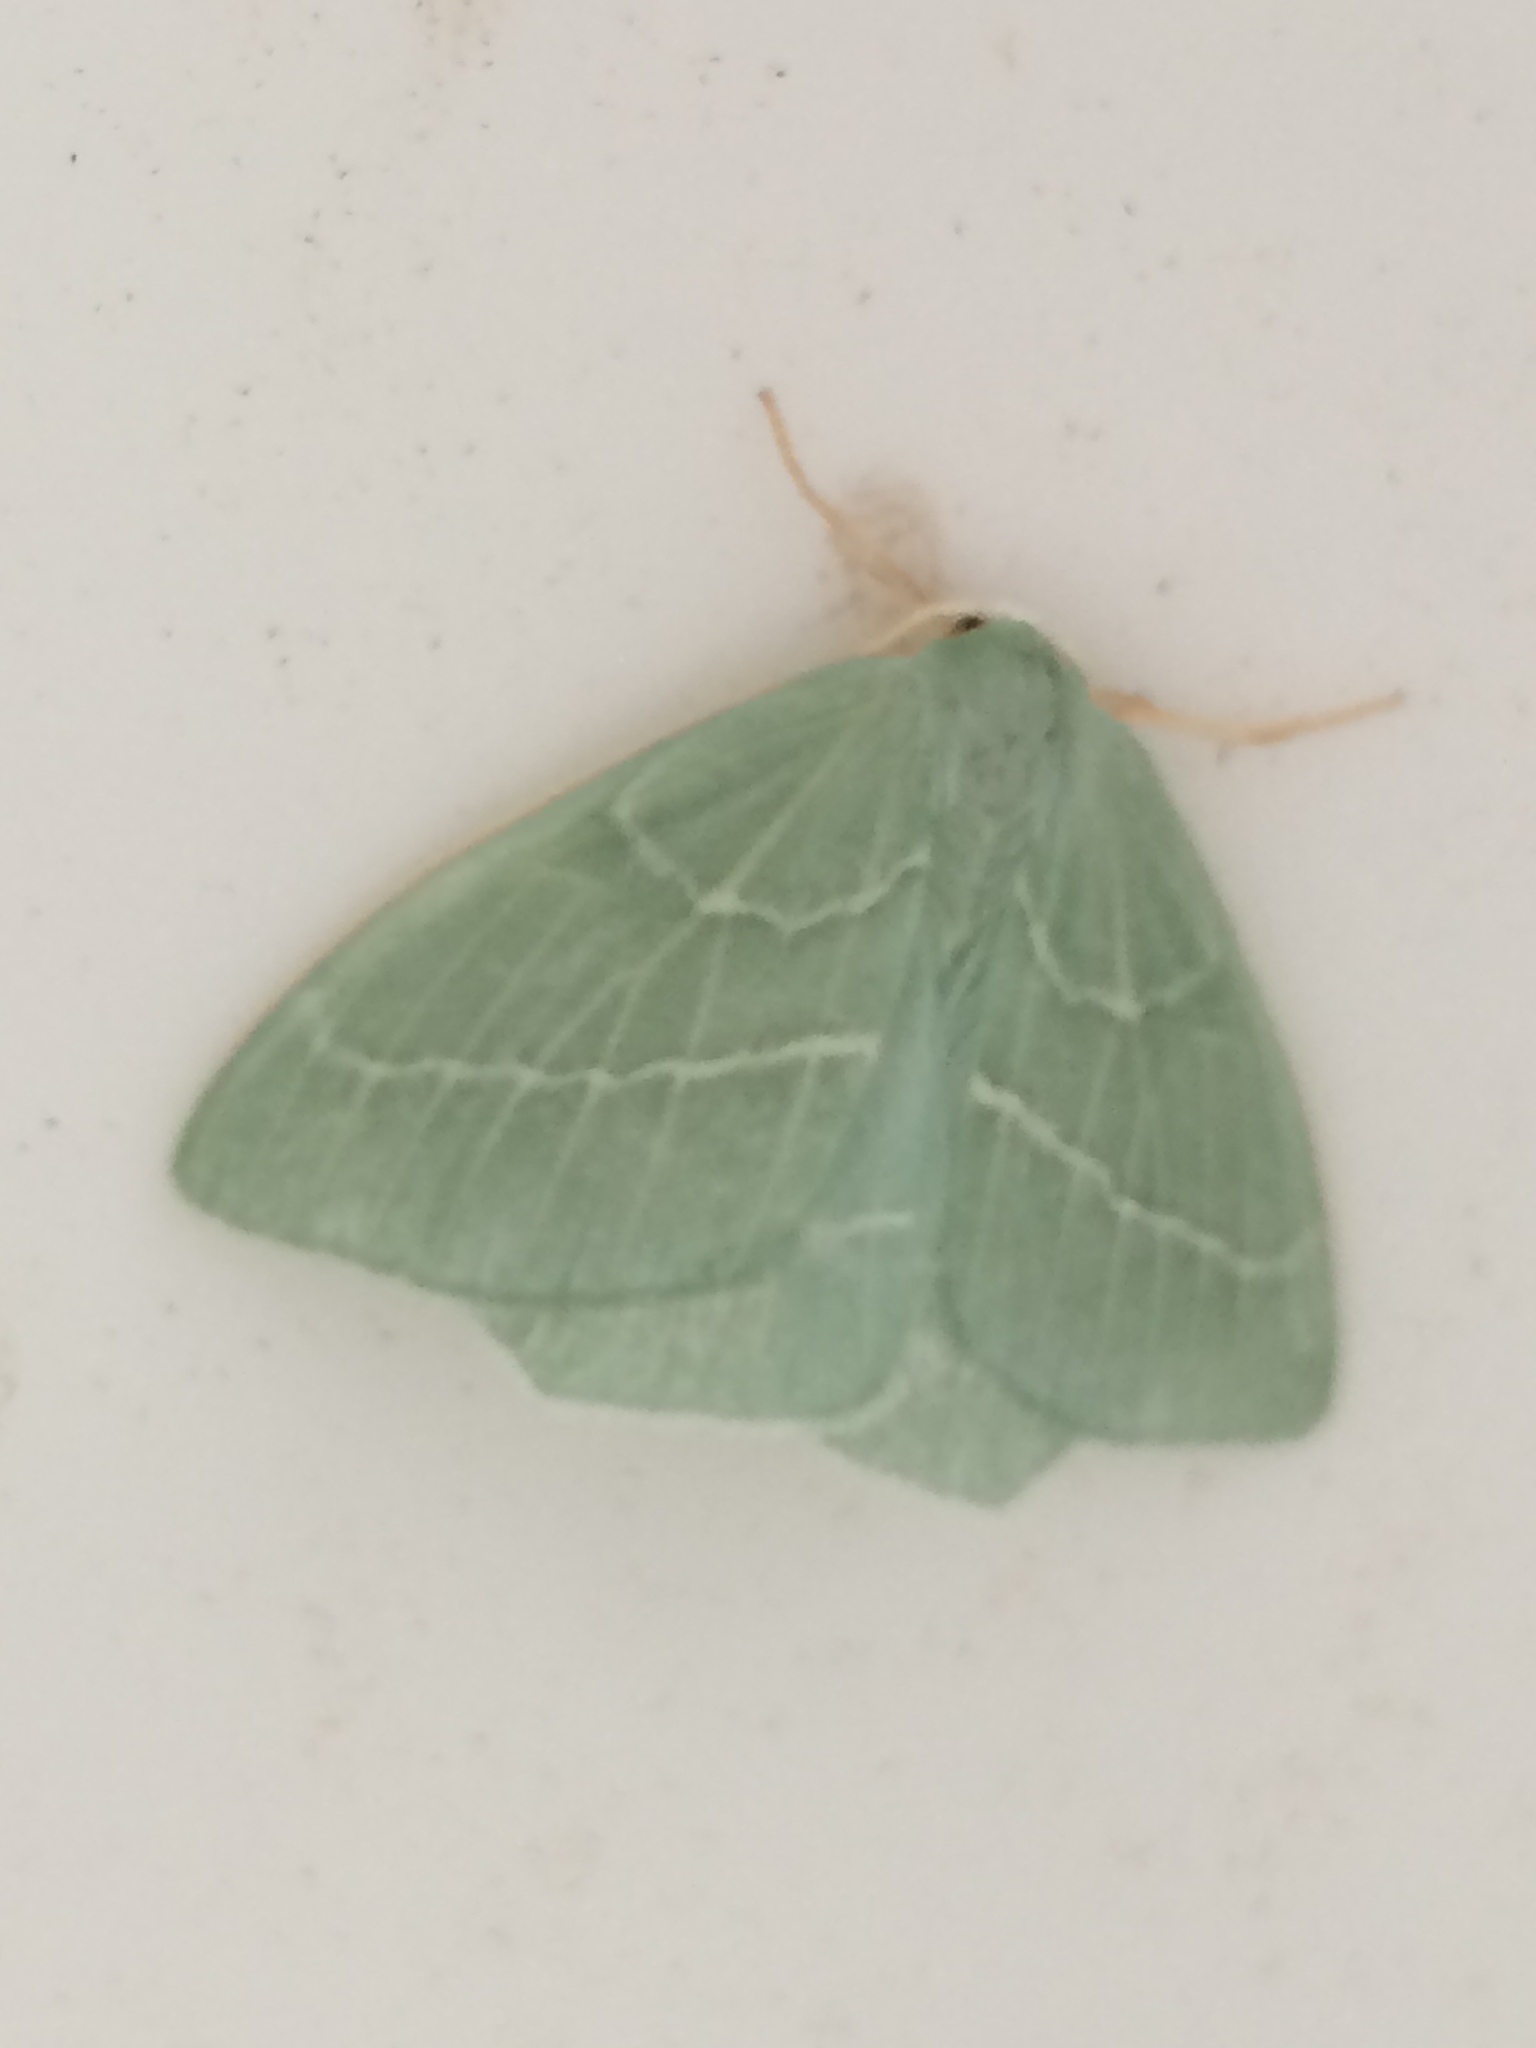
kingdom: Animalia
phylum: Arthropoda
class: Insecta
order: Lepidoptera
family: Geometridae
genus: Hemistola
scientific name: Hemistola chrysoprasaria
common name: Small emerald
